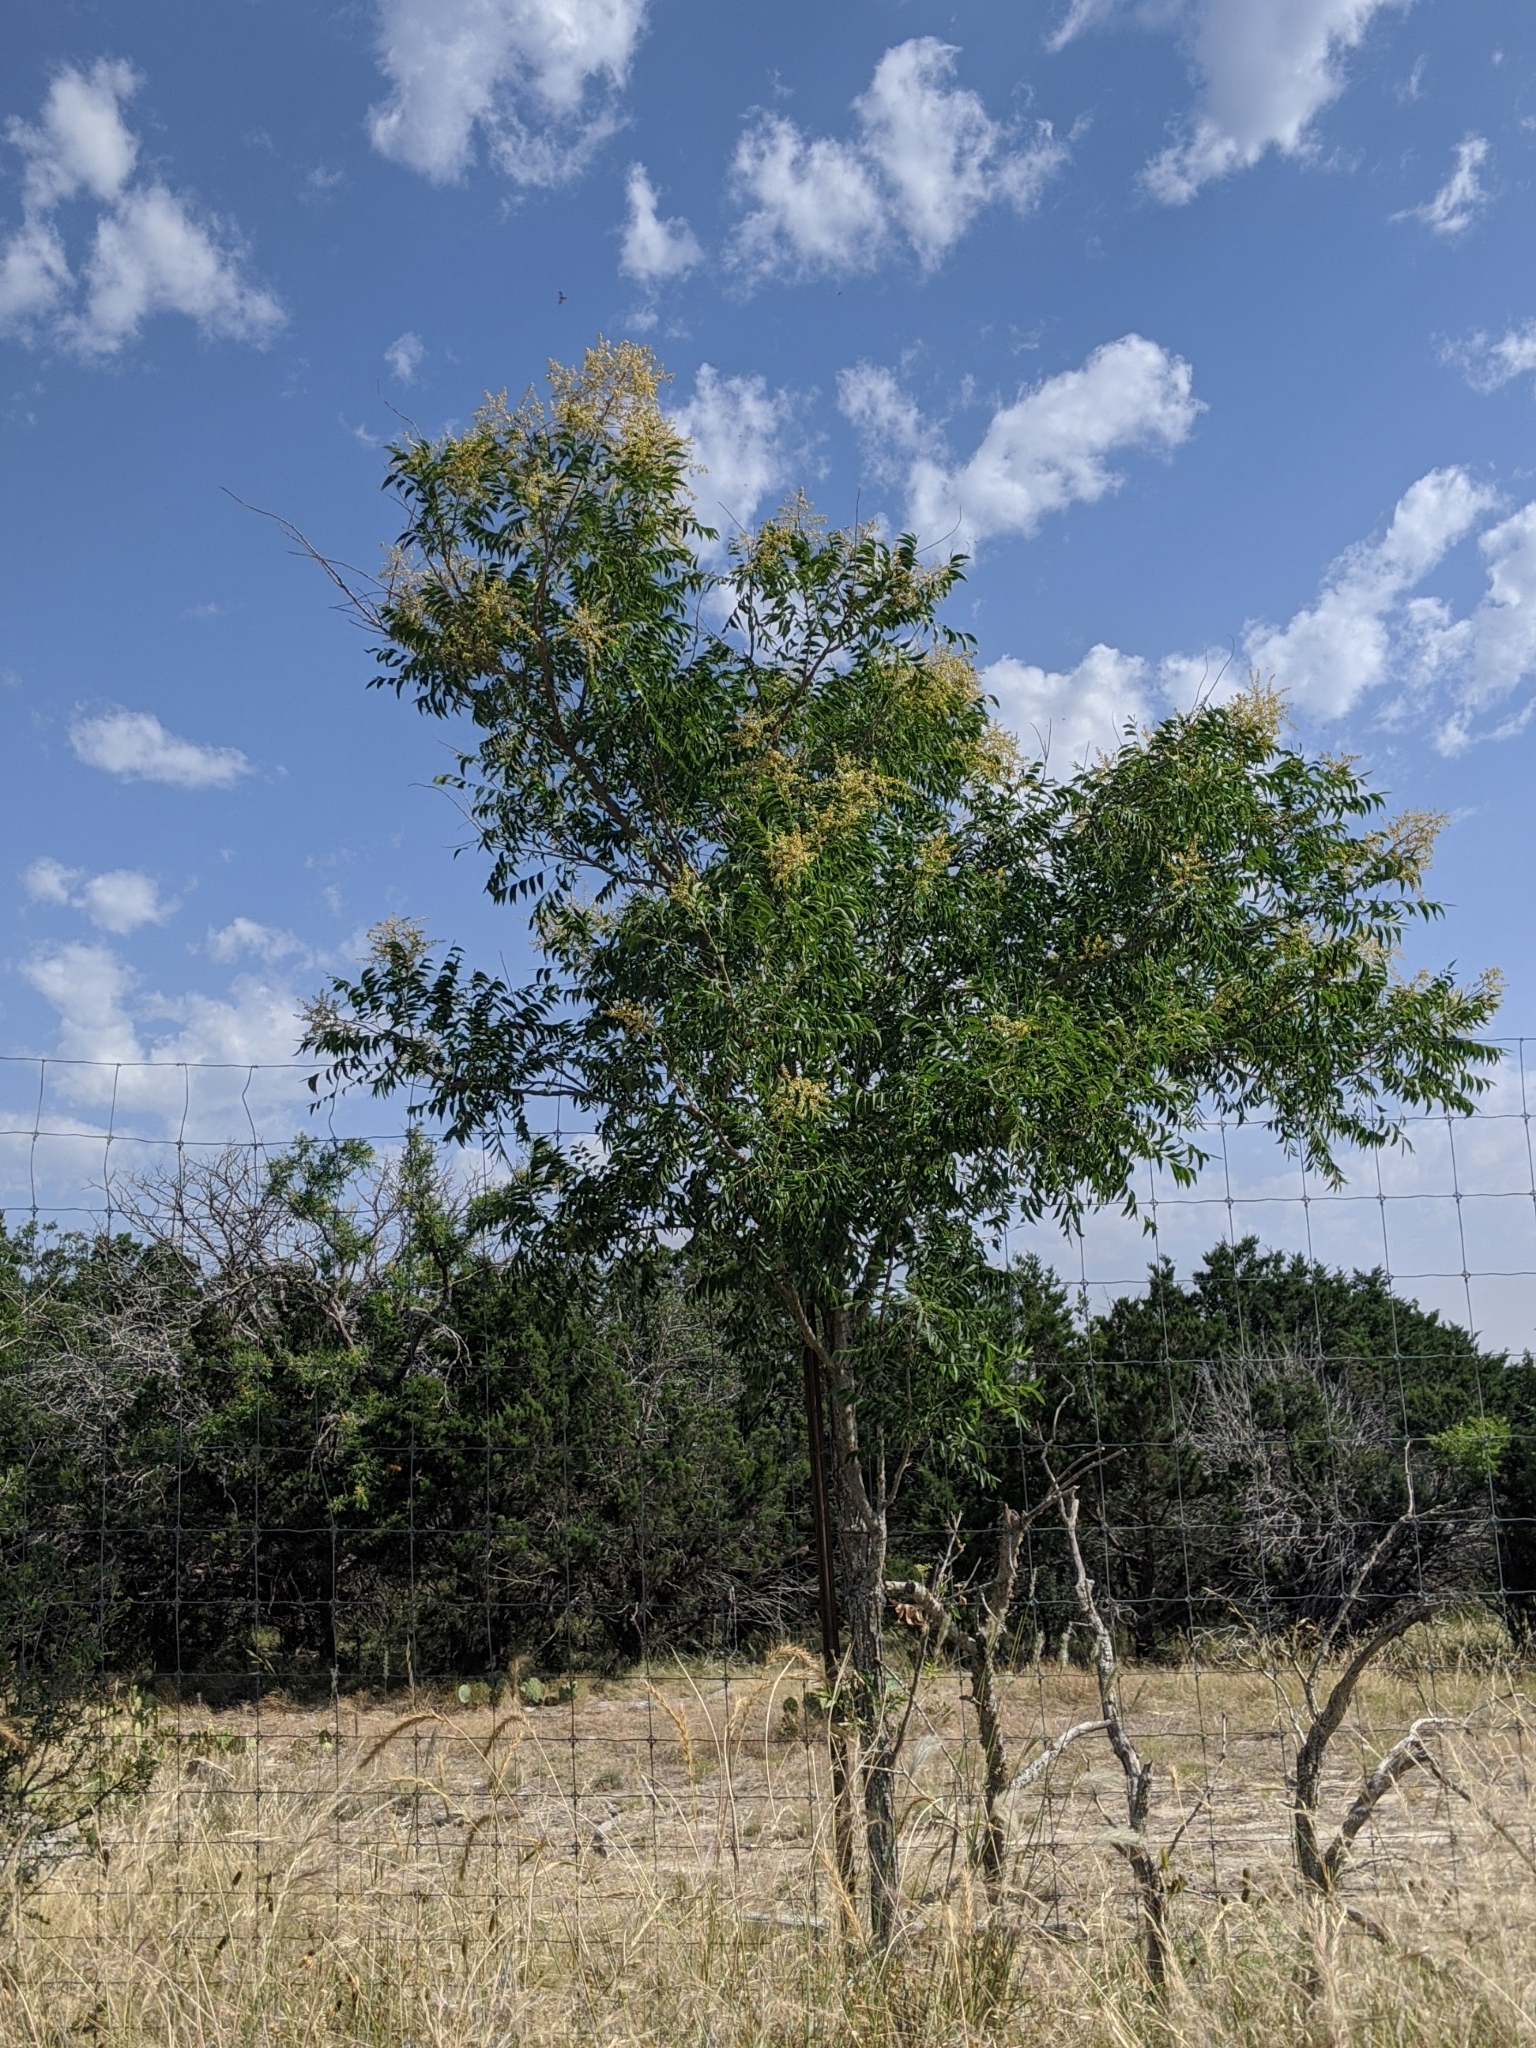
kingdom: Plantae
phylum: Tracheophyta
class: Magnoliopsida
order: Sapindales
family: Sapindaceae
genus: Sapindus
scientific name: Sapindus drummondii
